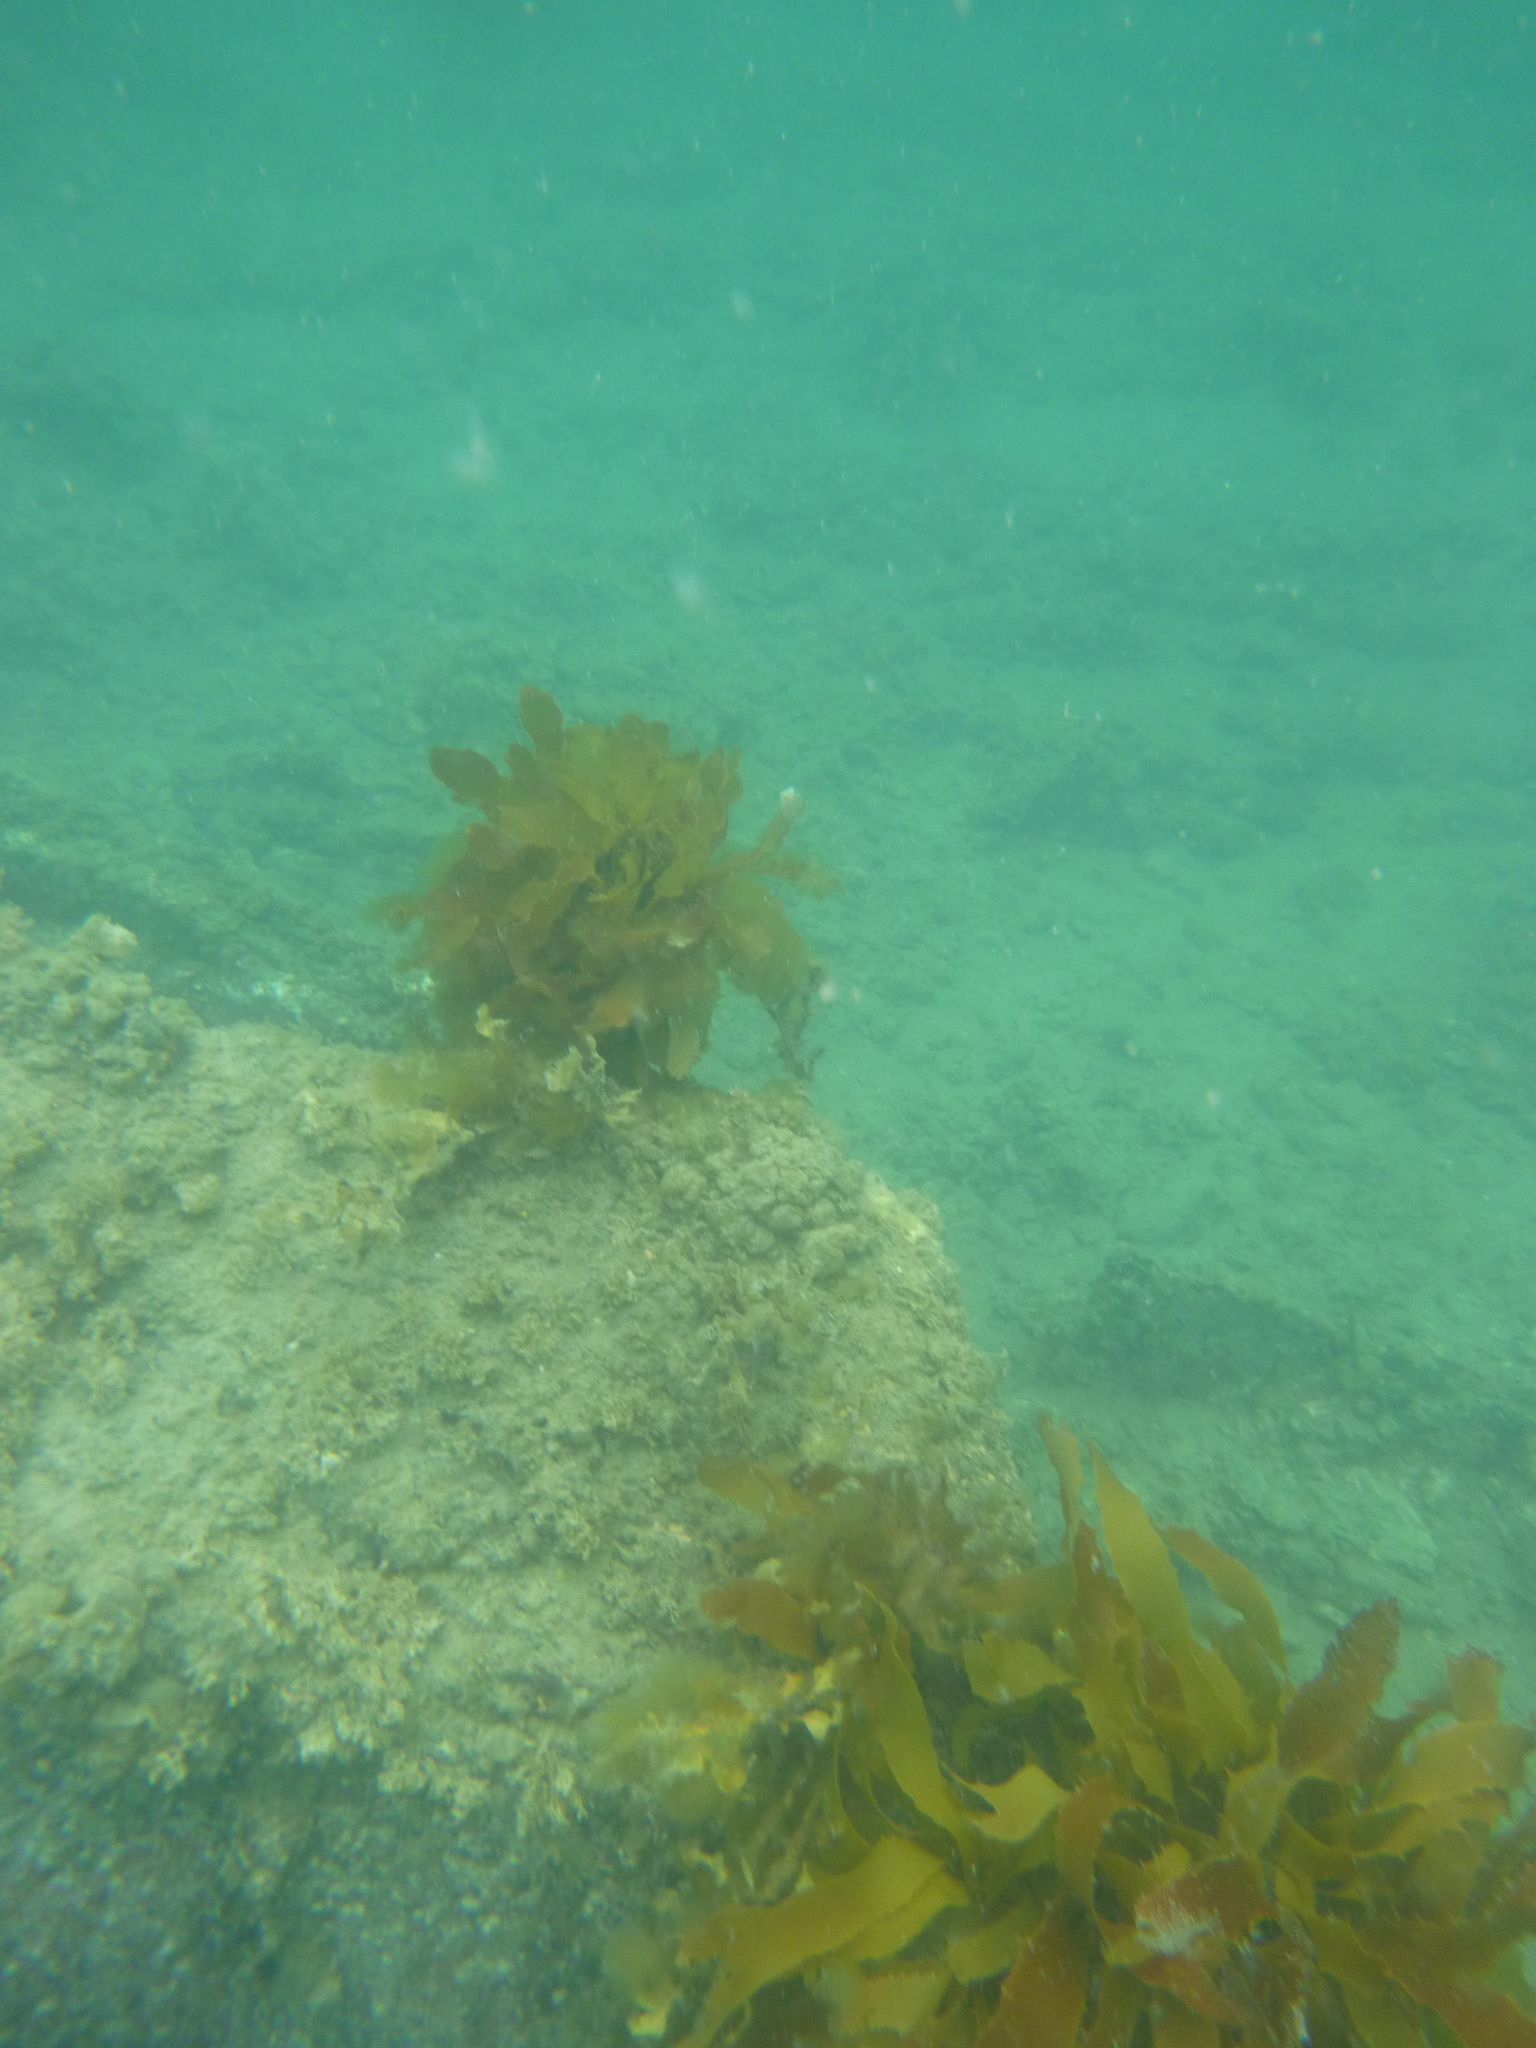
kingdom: Chromista
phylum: Ochrophyta
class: Phaeophyceae
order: Laminariales
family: Lessoniaceae
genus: Ecklonia
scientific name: Ecklonia radiata
